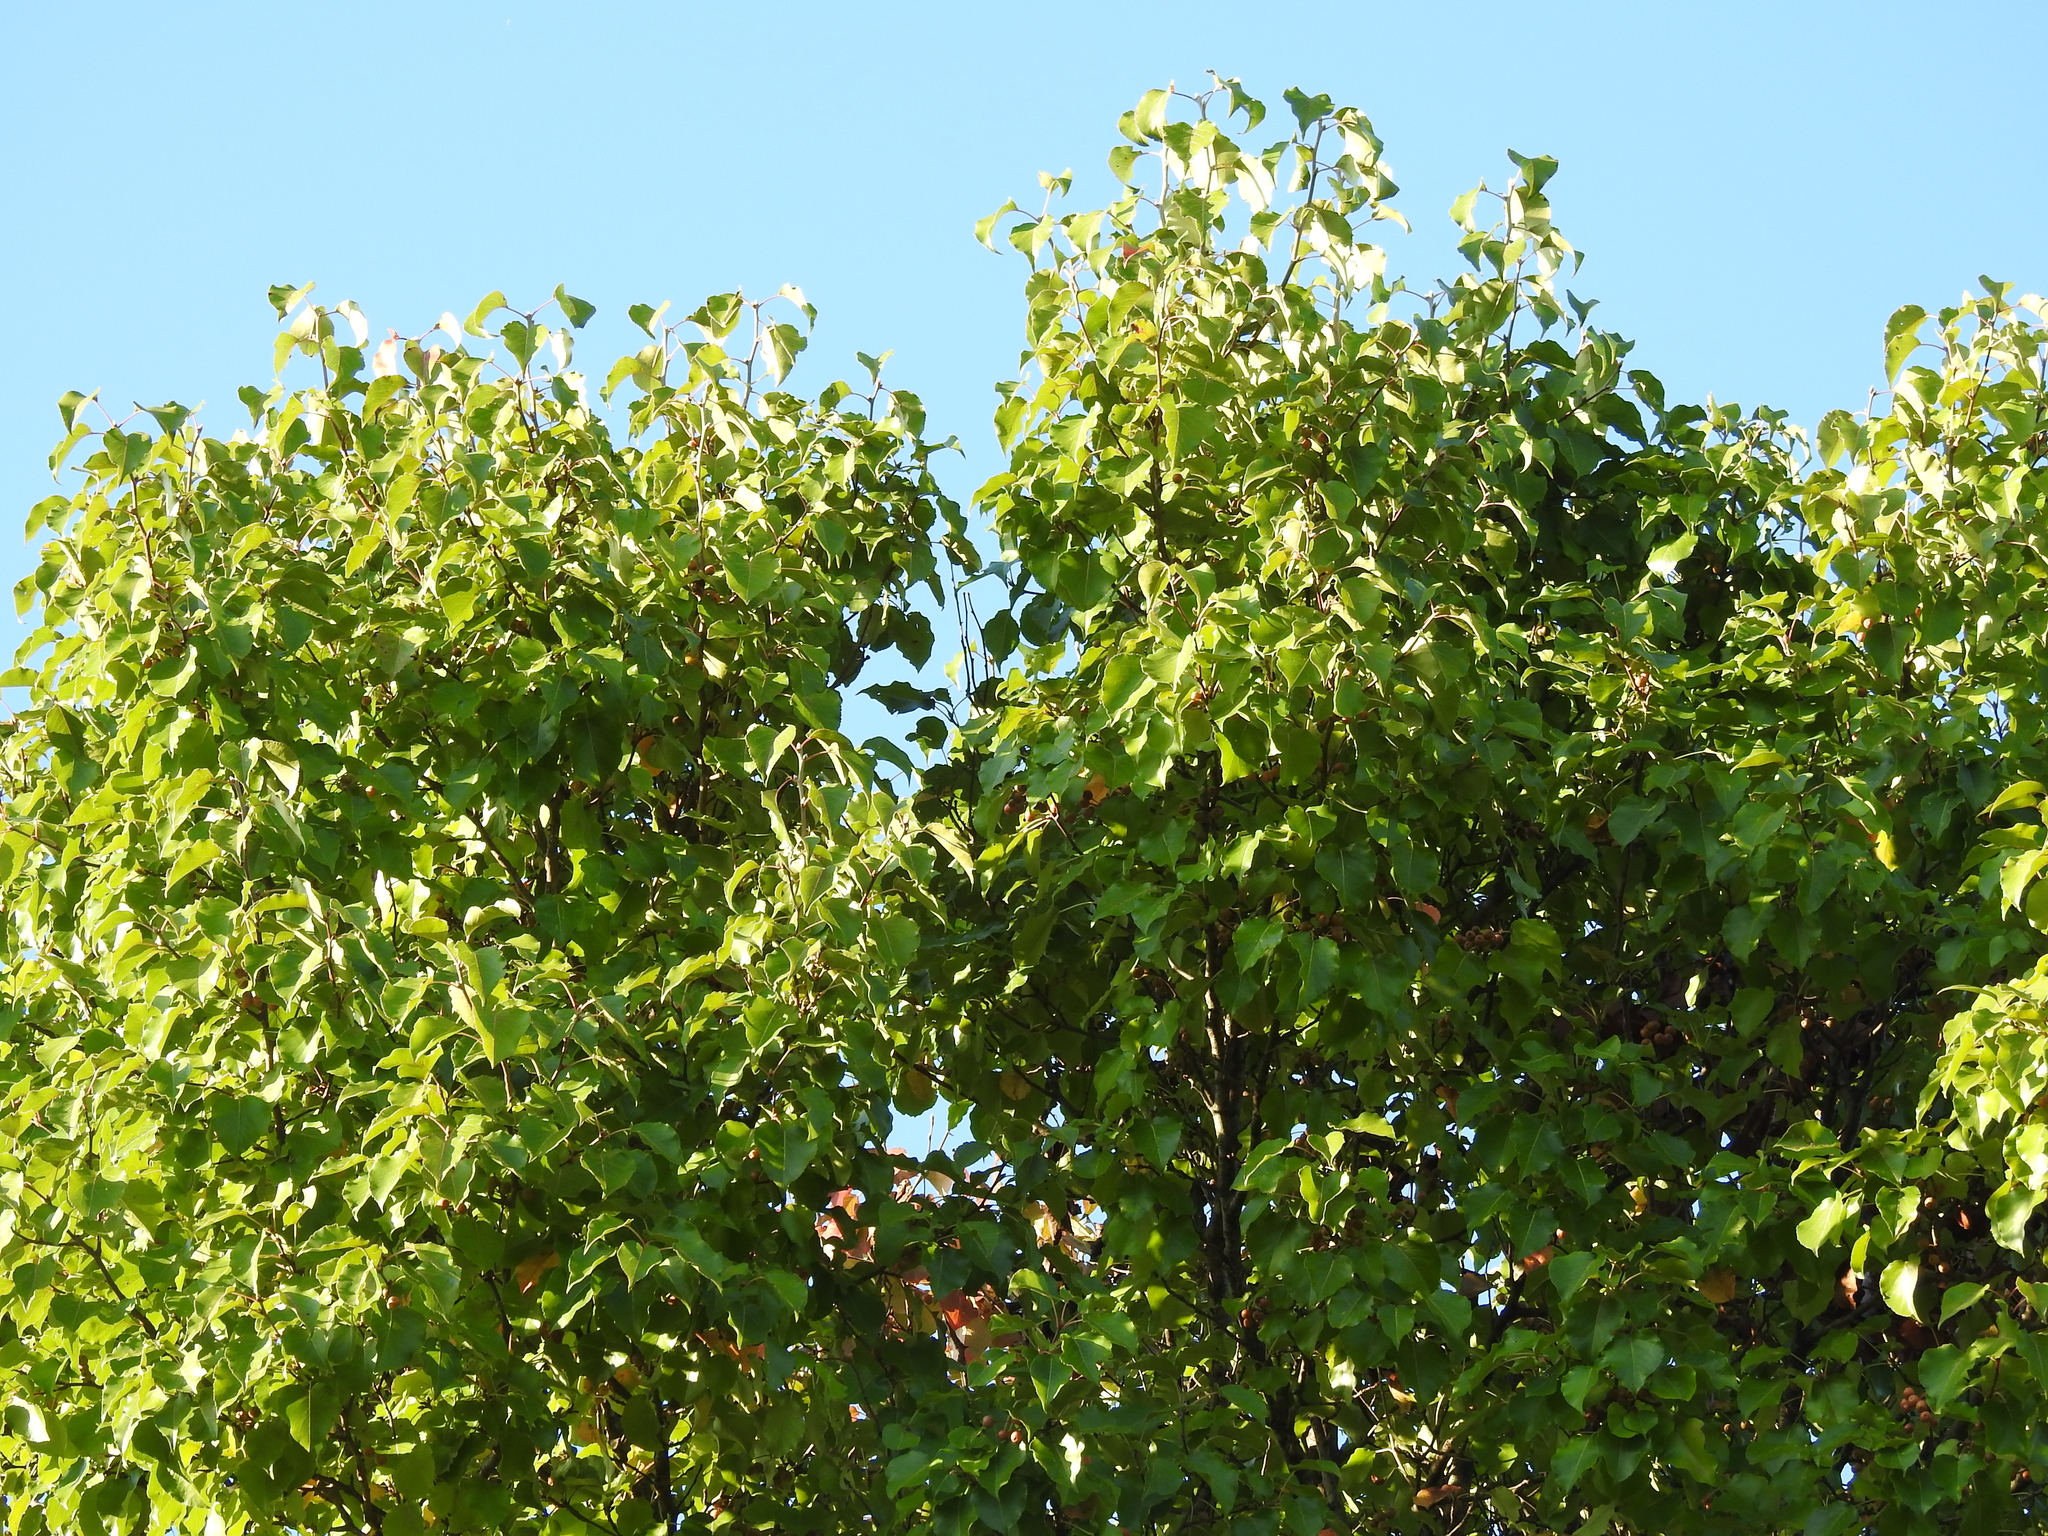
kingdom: Plantae
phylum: Tracheophyta
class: Magnoliopsida
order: Rosales
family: Rosaceae
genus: Pyrus
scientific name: Pyrus calleryana
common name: Callery pear
